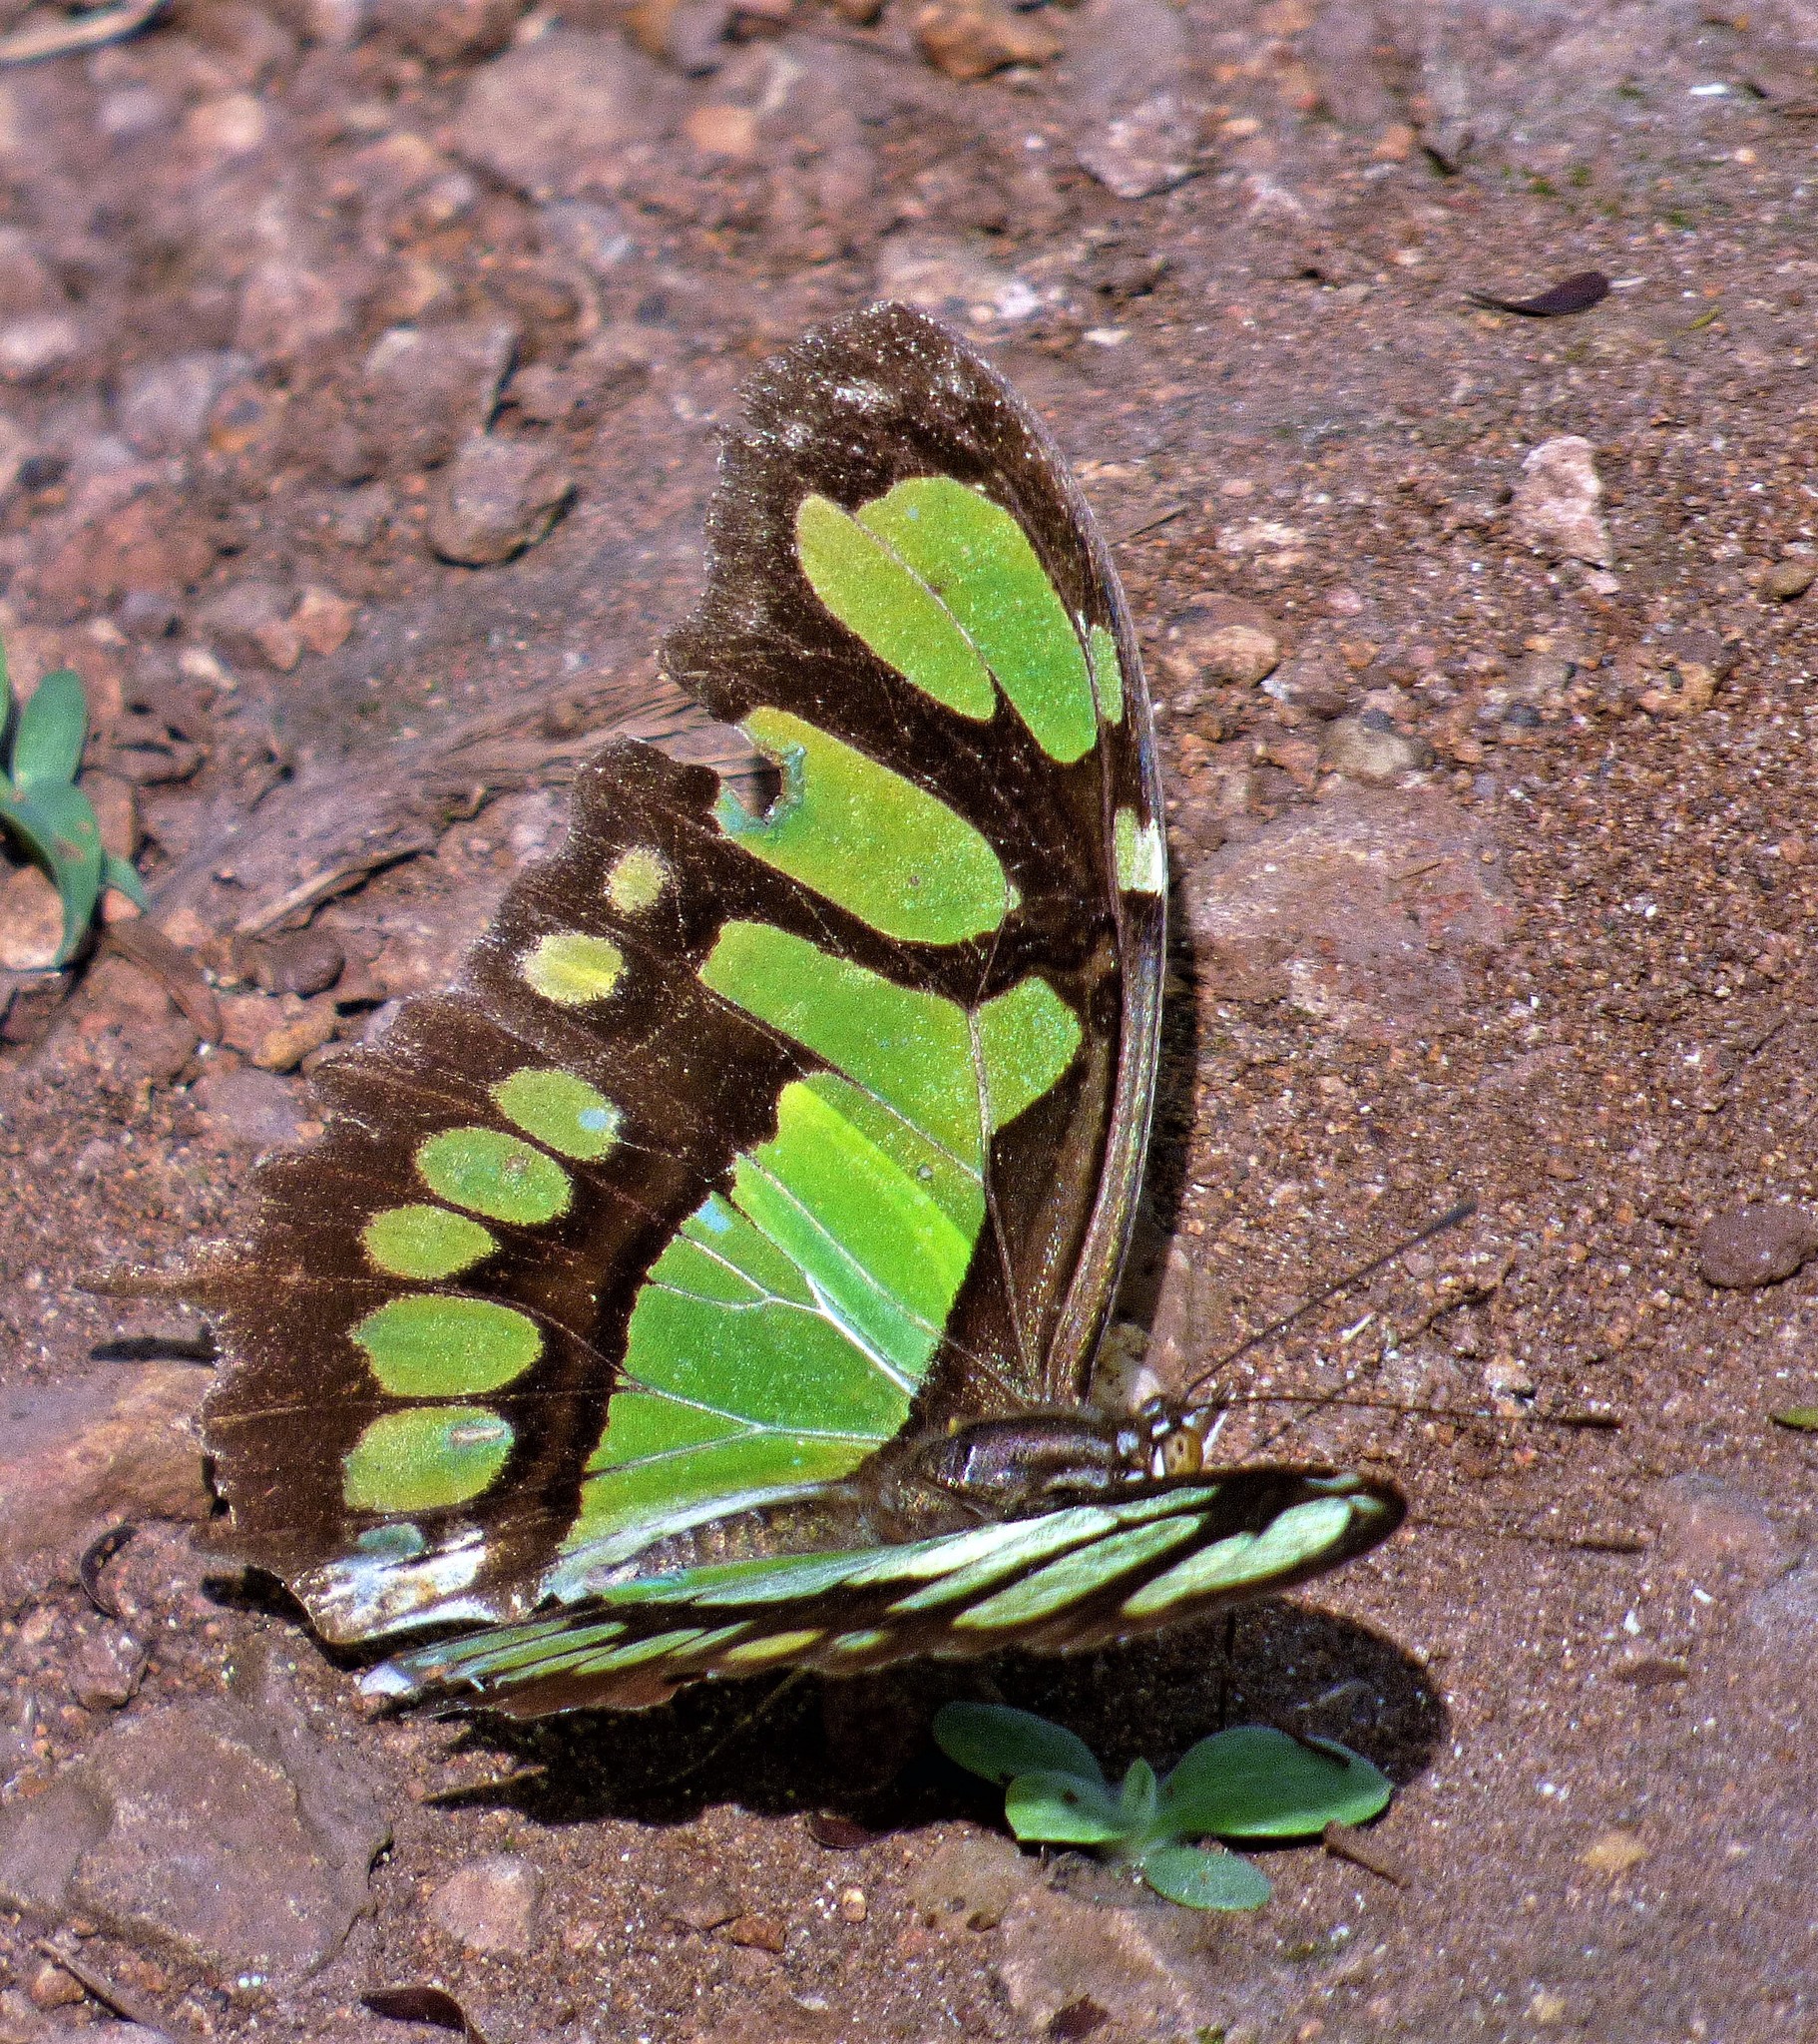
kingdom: Animalia
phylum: Arthropoda
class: Insecta
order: Lepidoptera
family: Nymphalidae
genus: Siproeta
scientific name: Siproeta stelenes
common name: Malachite
